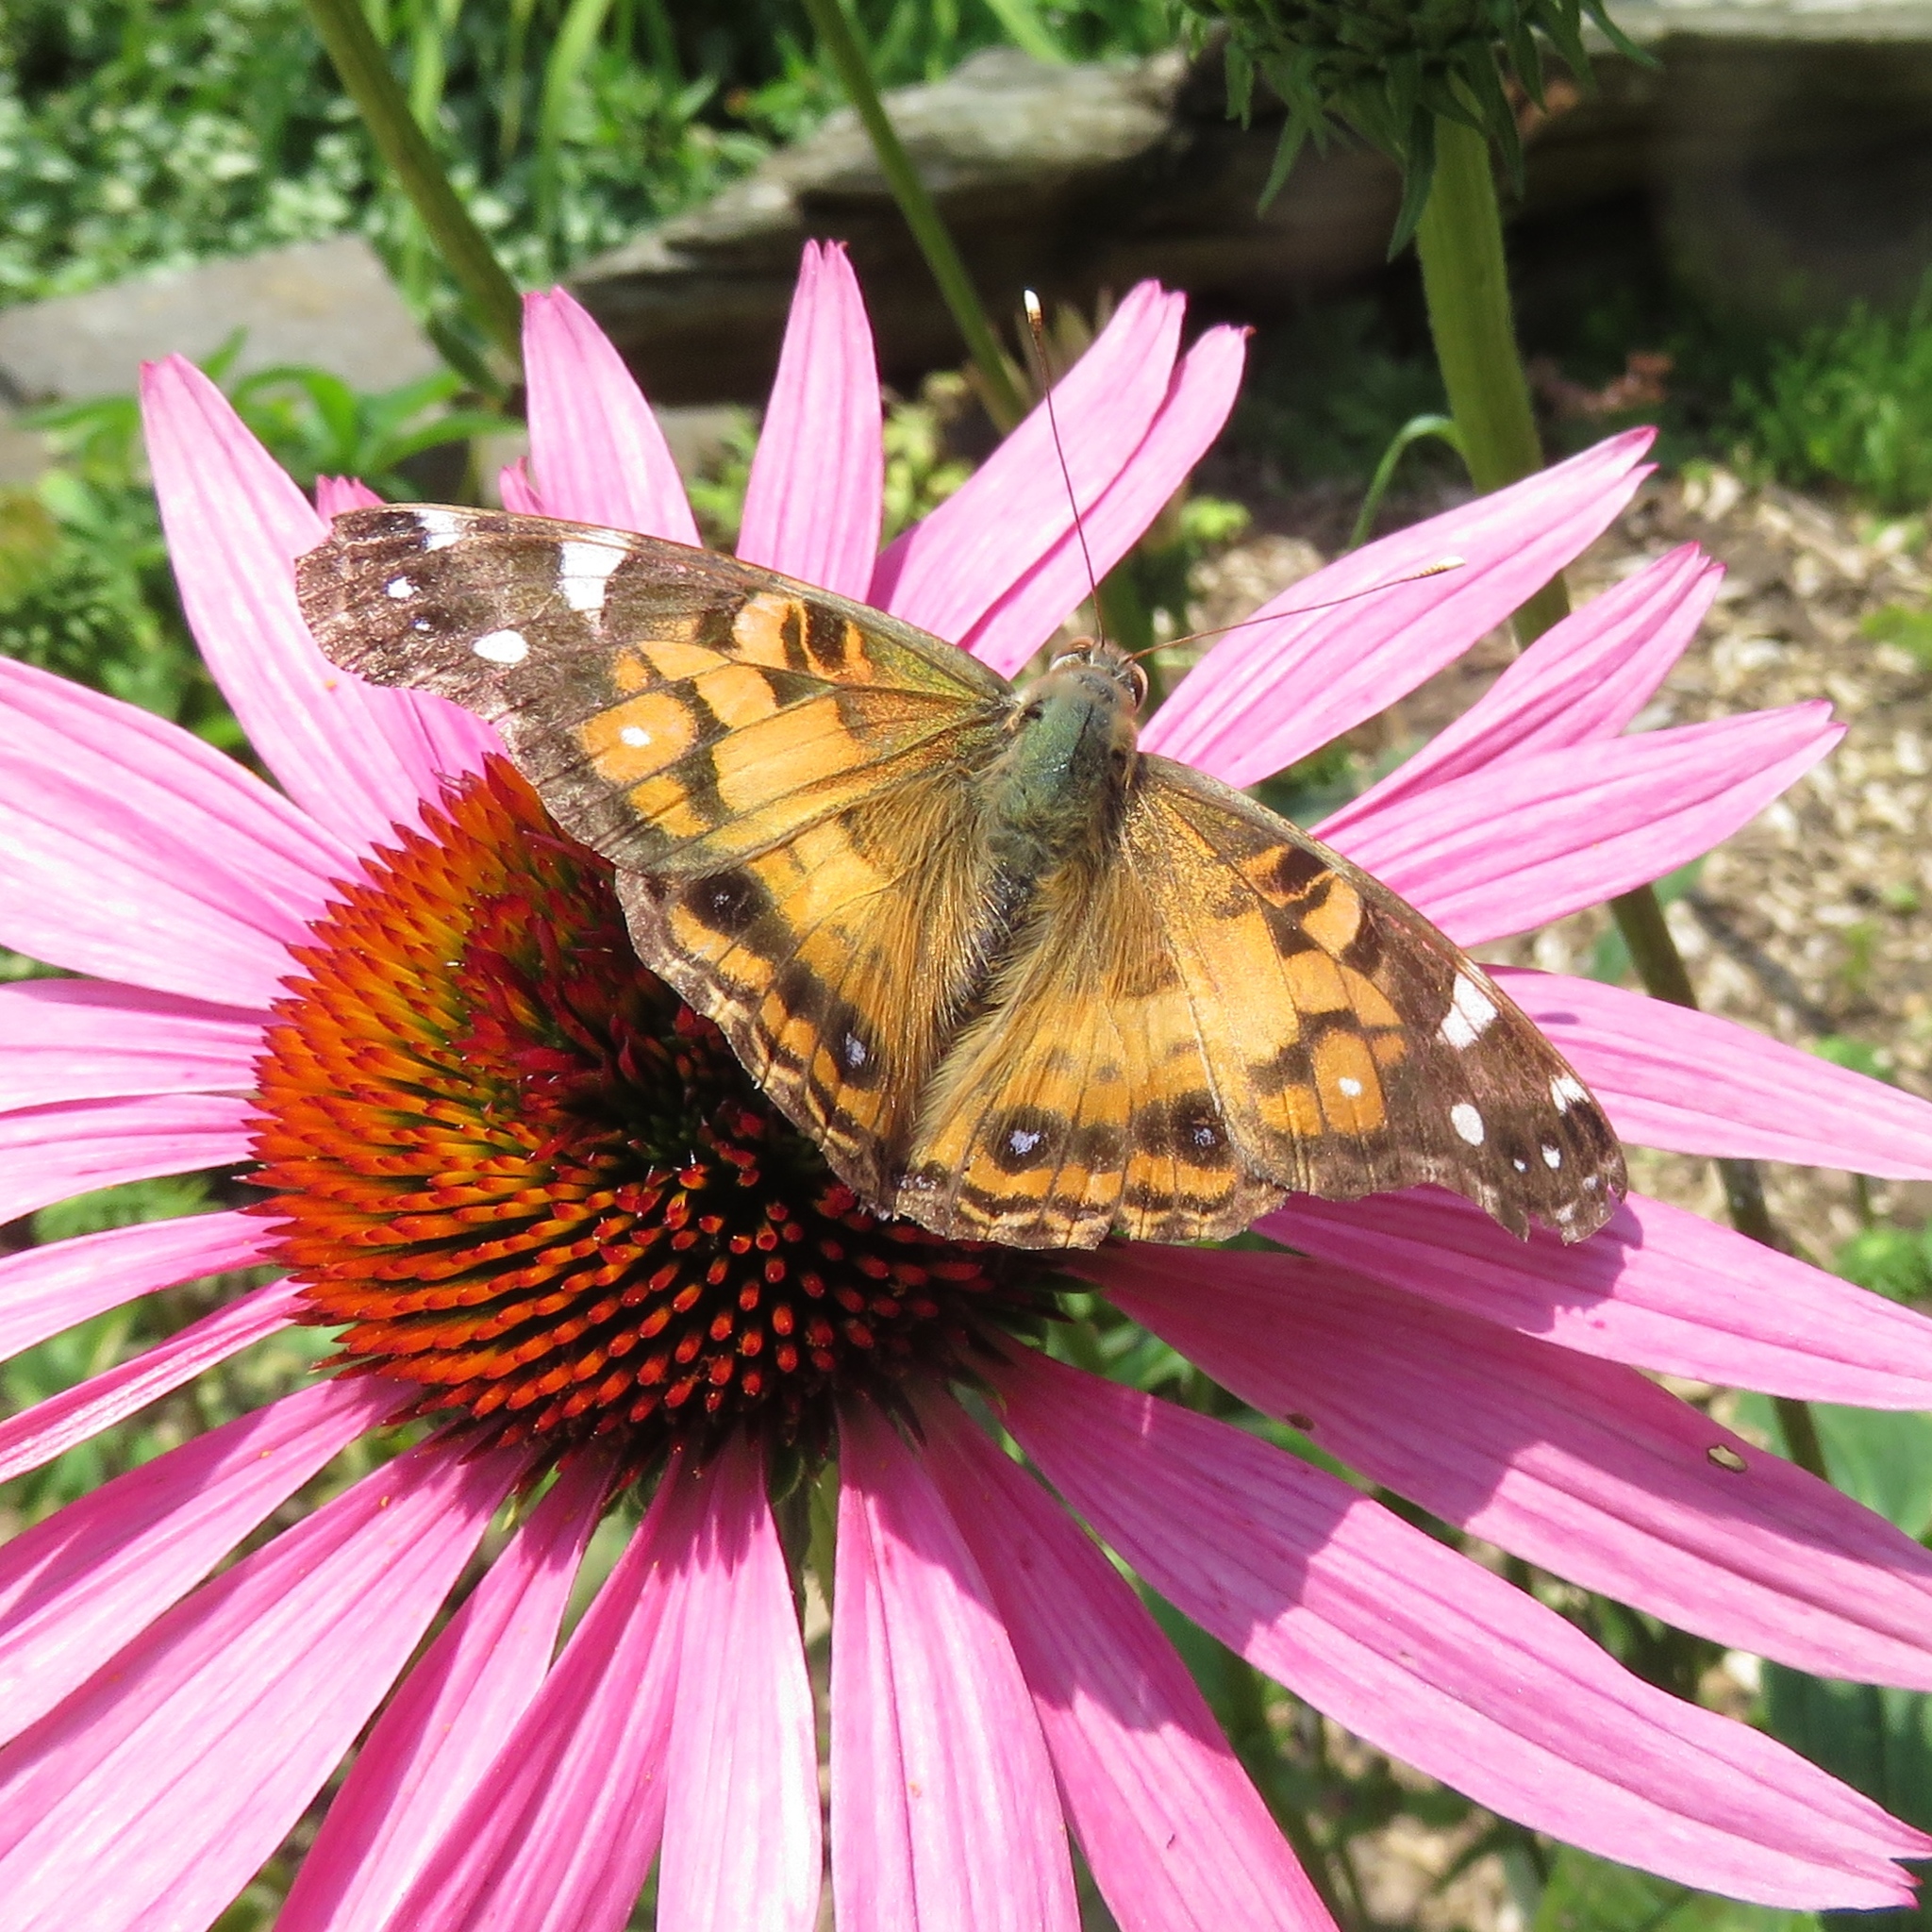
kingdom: Animalia
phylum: Arthropoda
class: Insecta
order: Lepidoptera
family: Nymphalidae
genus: Vanessa
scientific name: Vanessa virginiensis
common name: American lady
